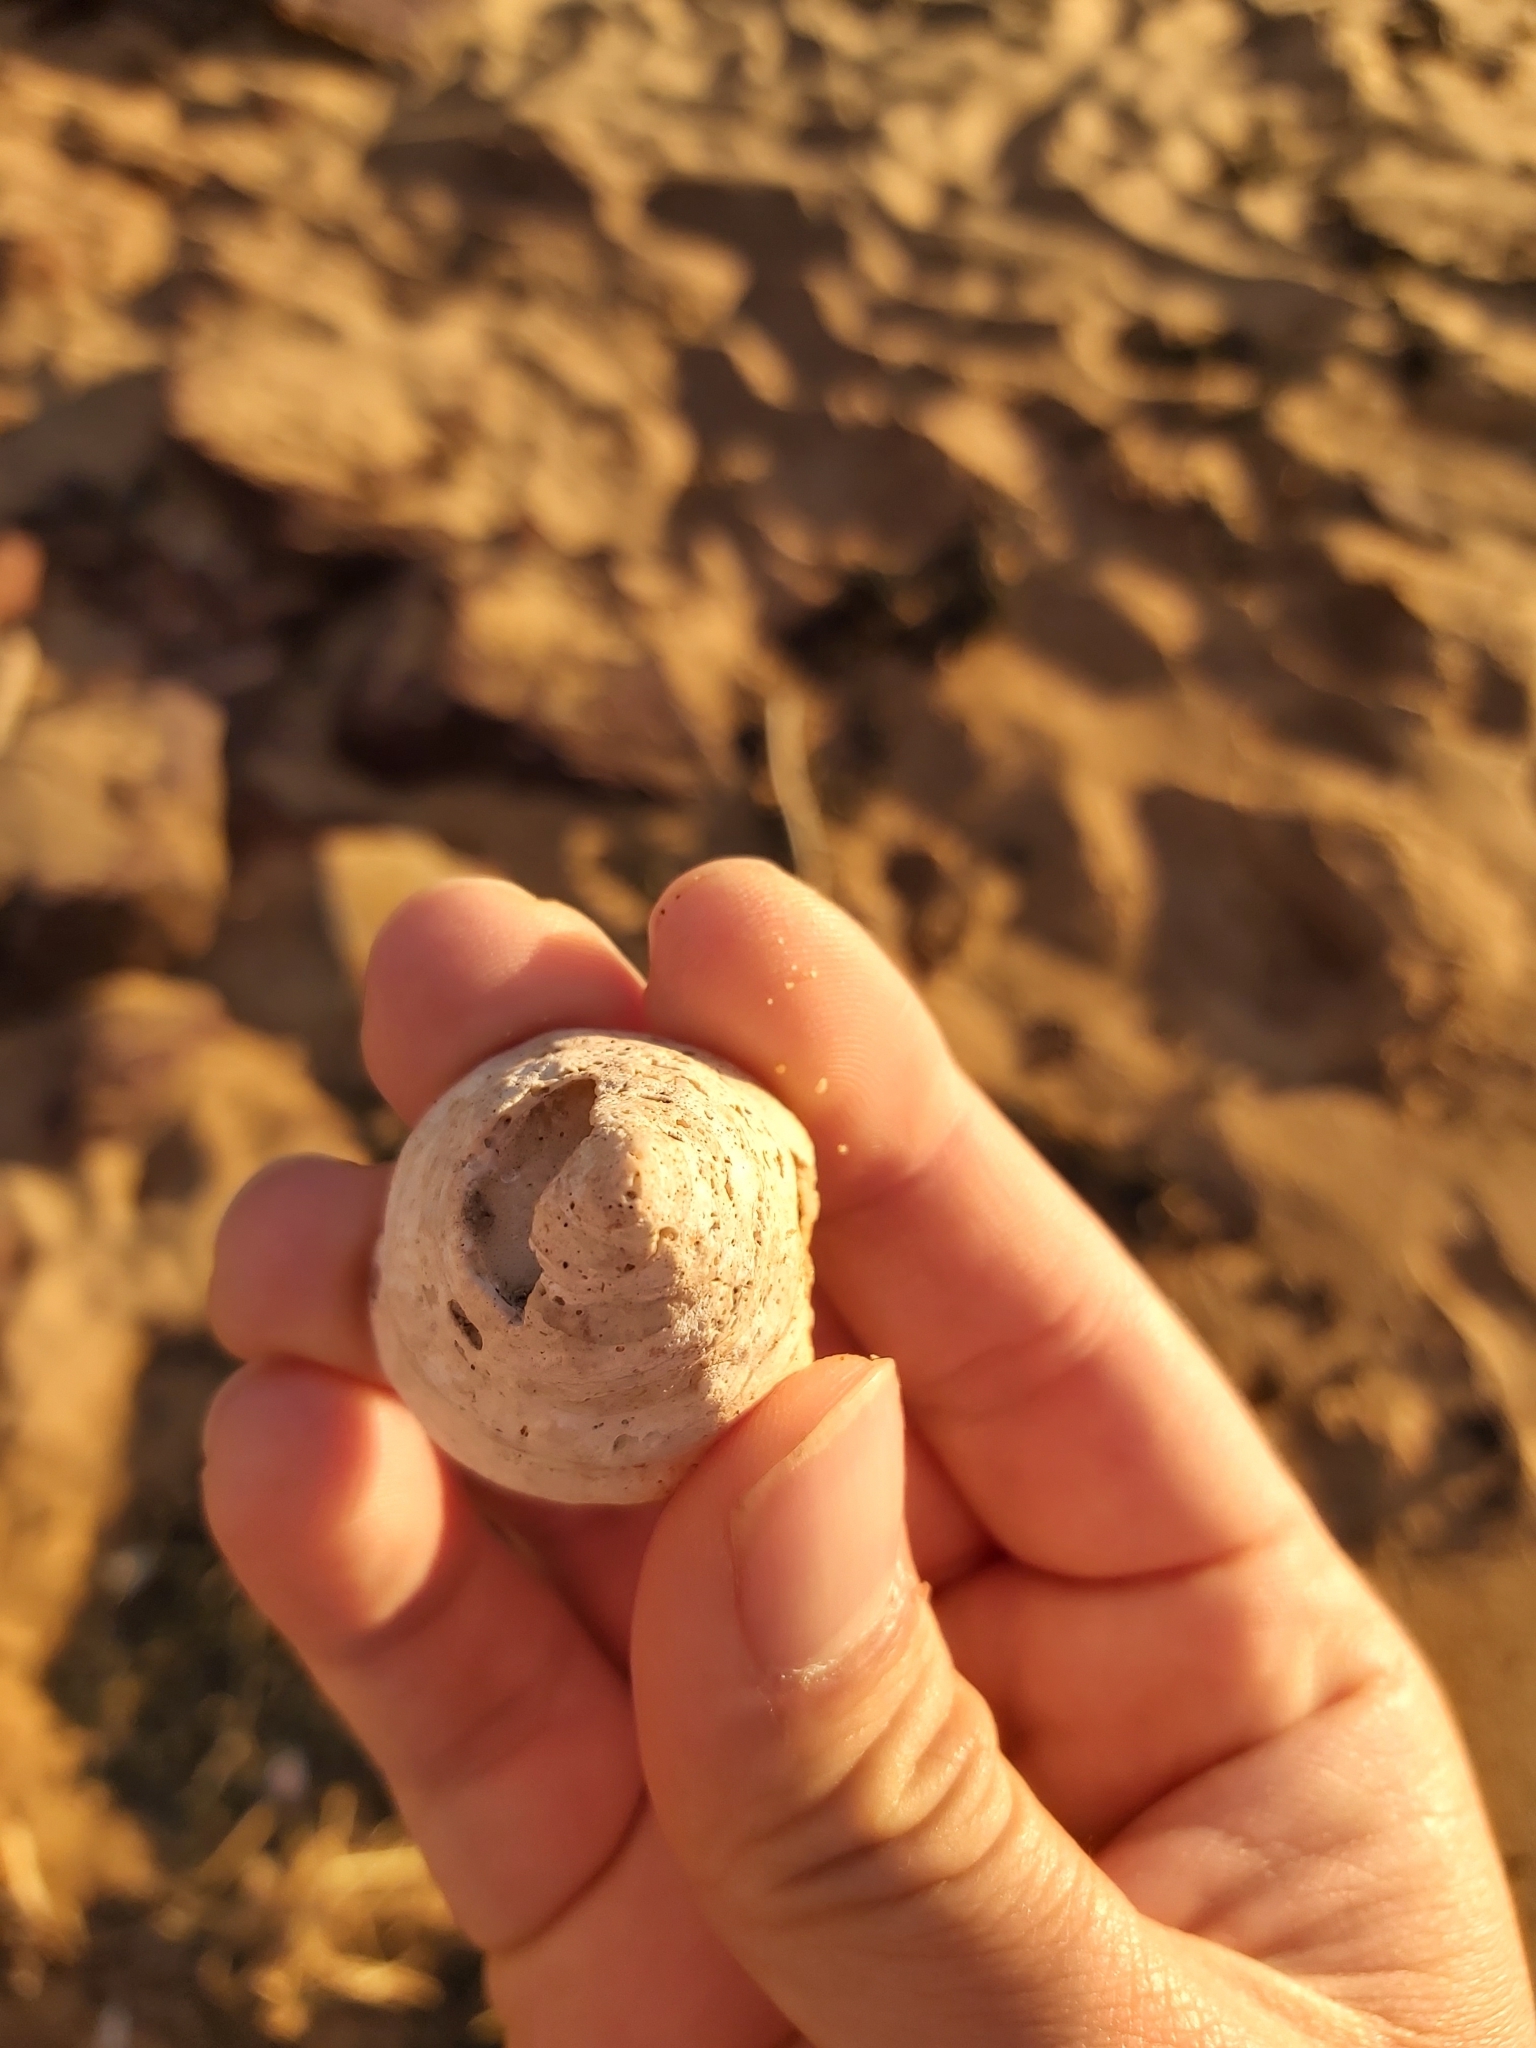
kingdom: Animalia
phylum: Mollusca
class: Gastropoda
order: Trochida
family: Turbinidae
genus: Astralium
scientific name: Astralium tentoriiforme
